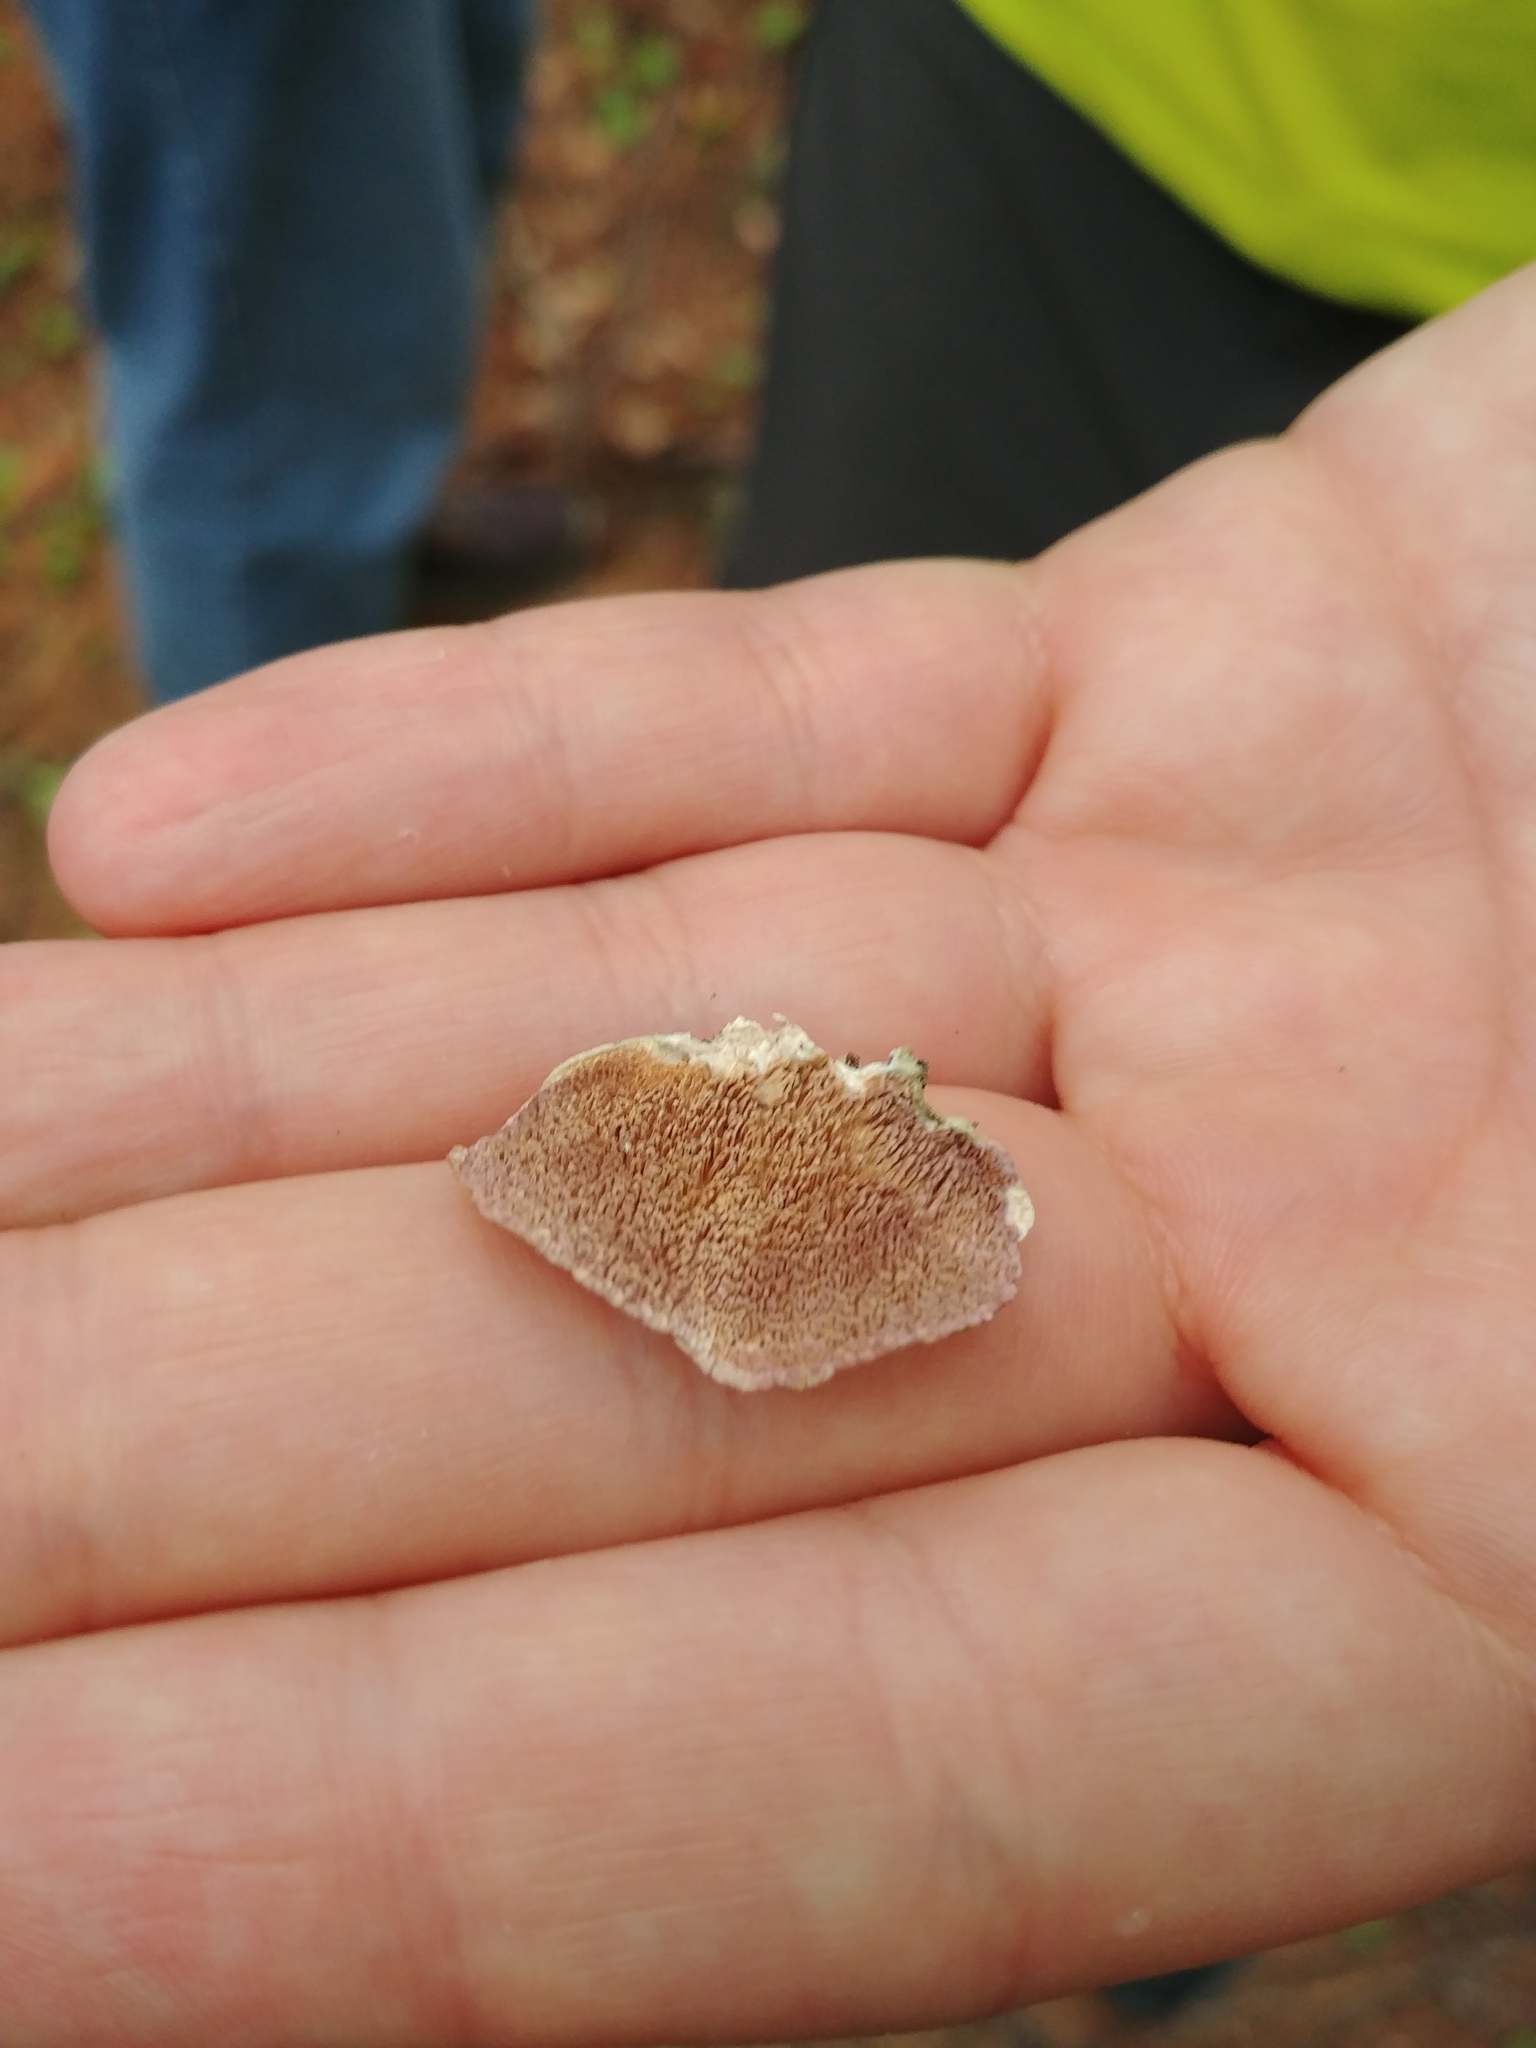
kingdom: Fungi
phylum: Basidiomycota
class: Agaricomycetes
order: Hymenochaetales
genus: Trichaptum
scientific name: Trichaptum biforme
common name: Violet-toothed polypore
